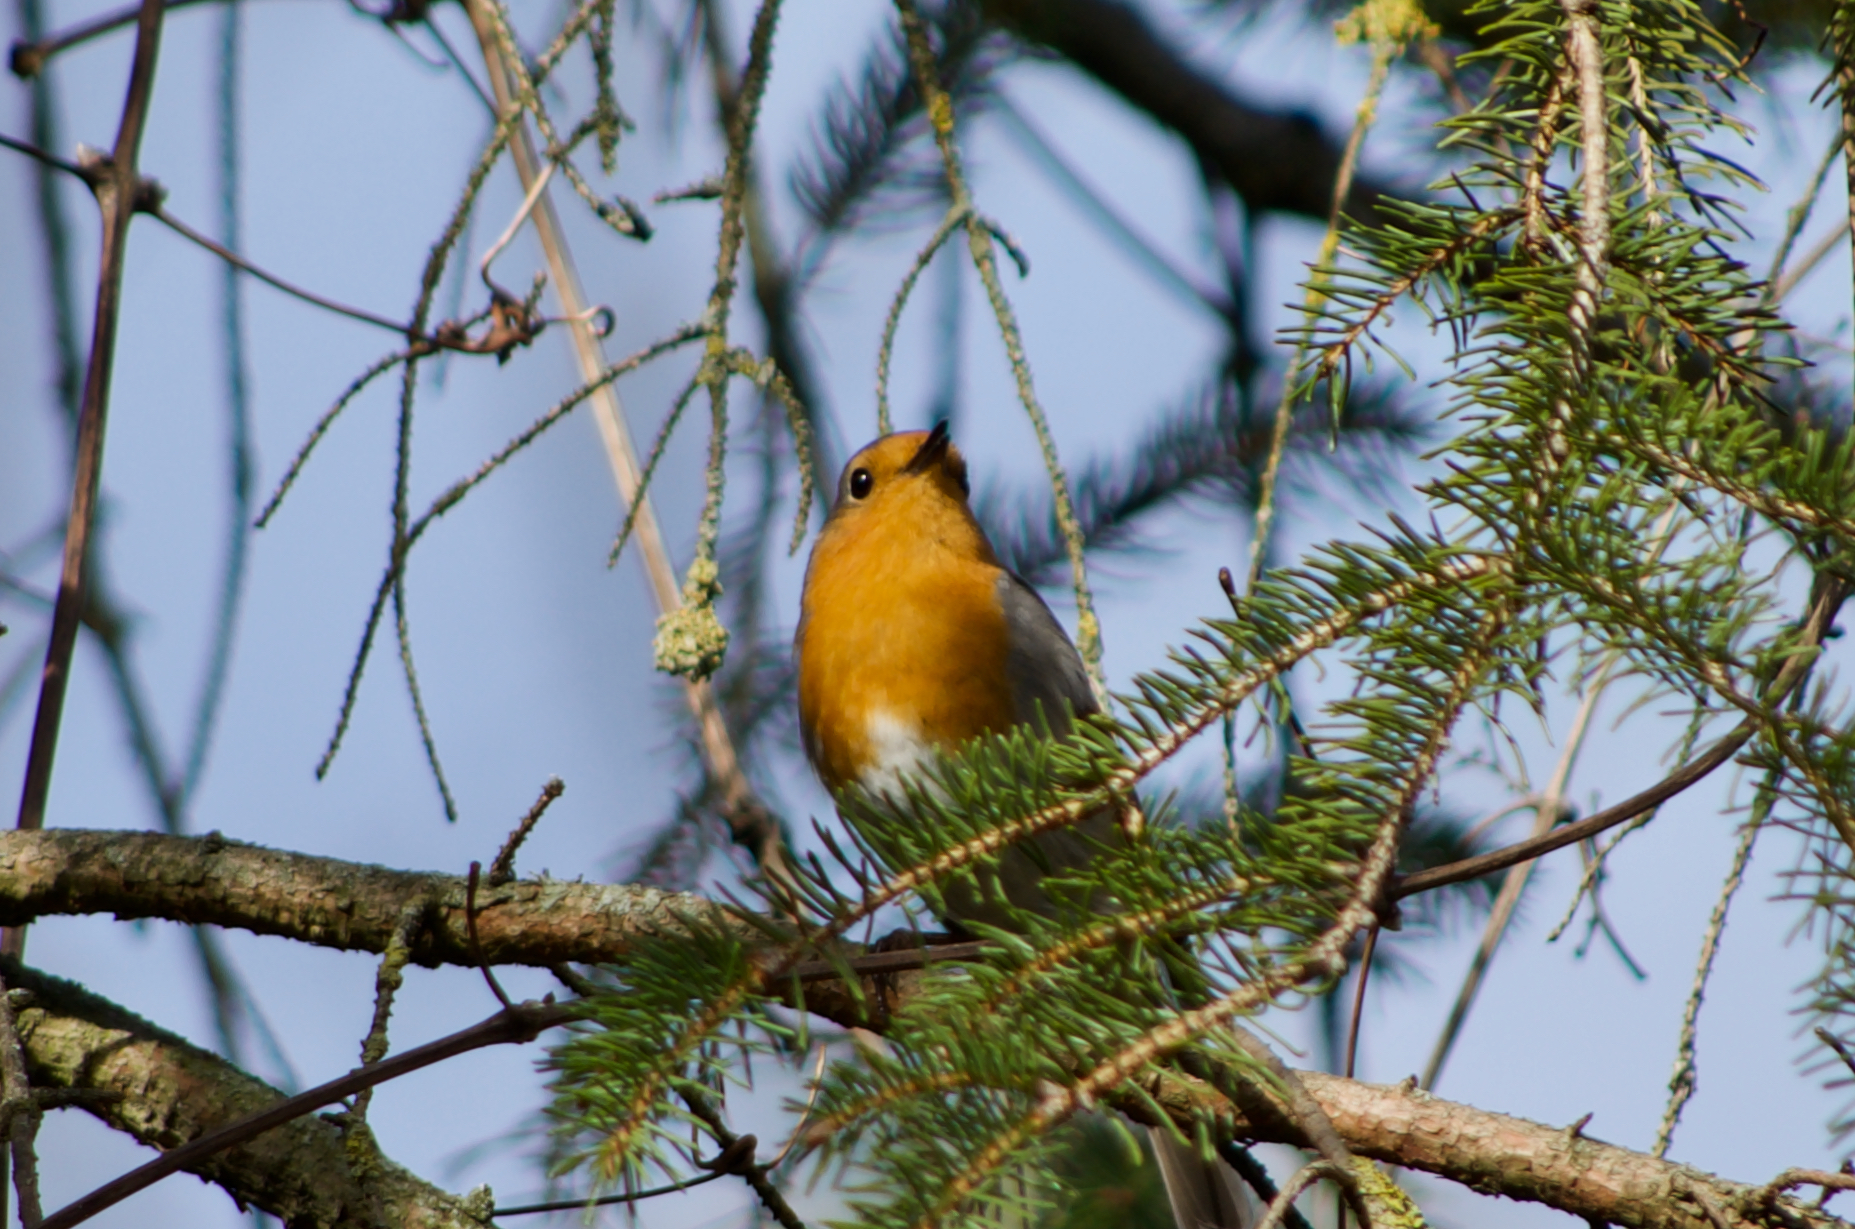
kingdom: Animalia
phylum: Chordata
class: Aves
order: Passeriformes
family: Muscicapidae
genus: Erithacus
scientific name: Erithacus rubecula
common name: European robin
